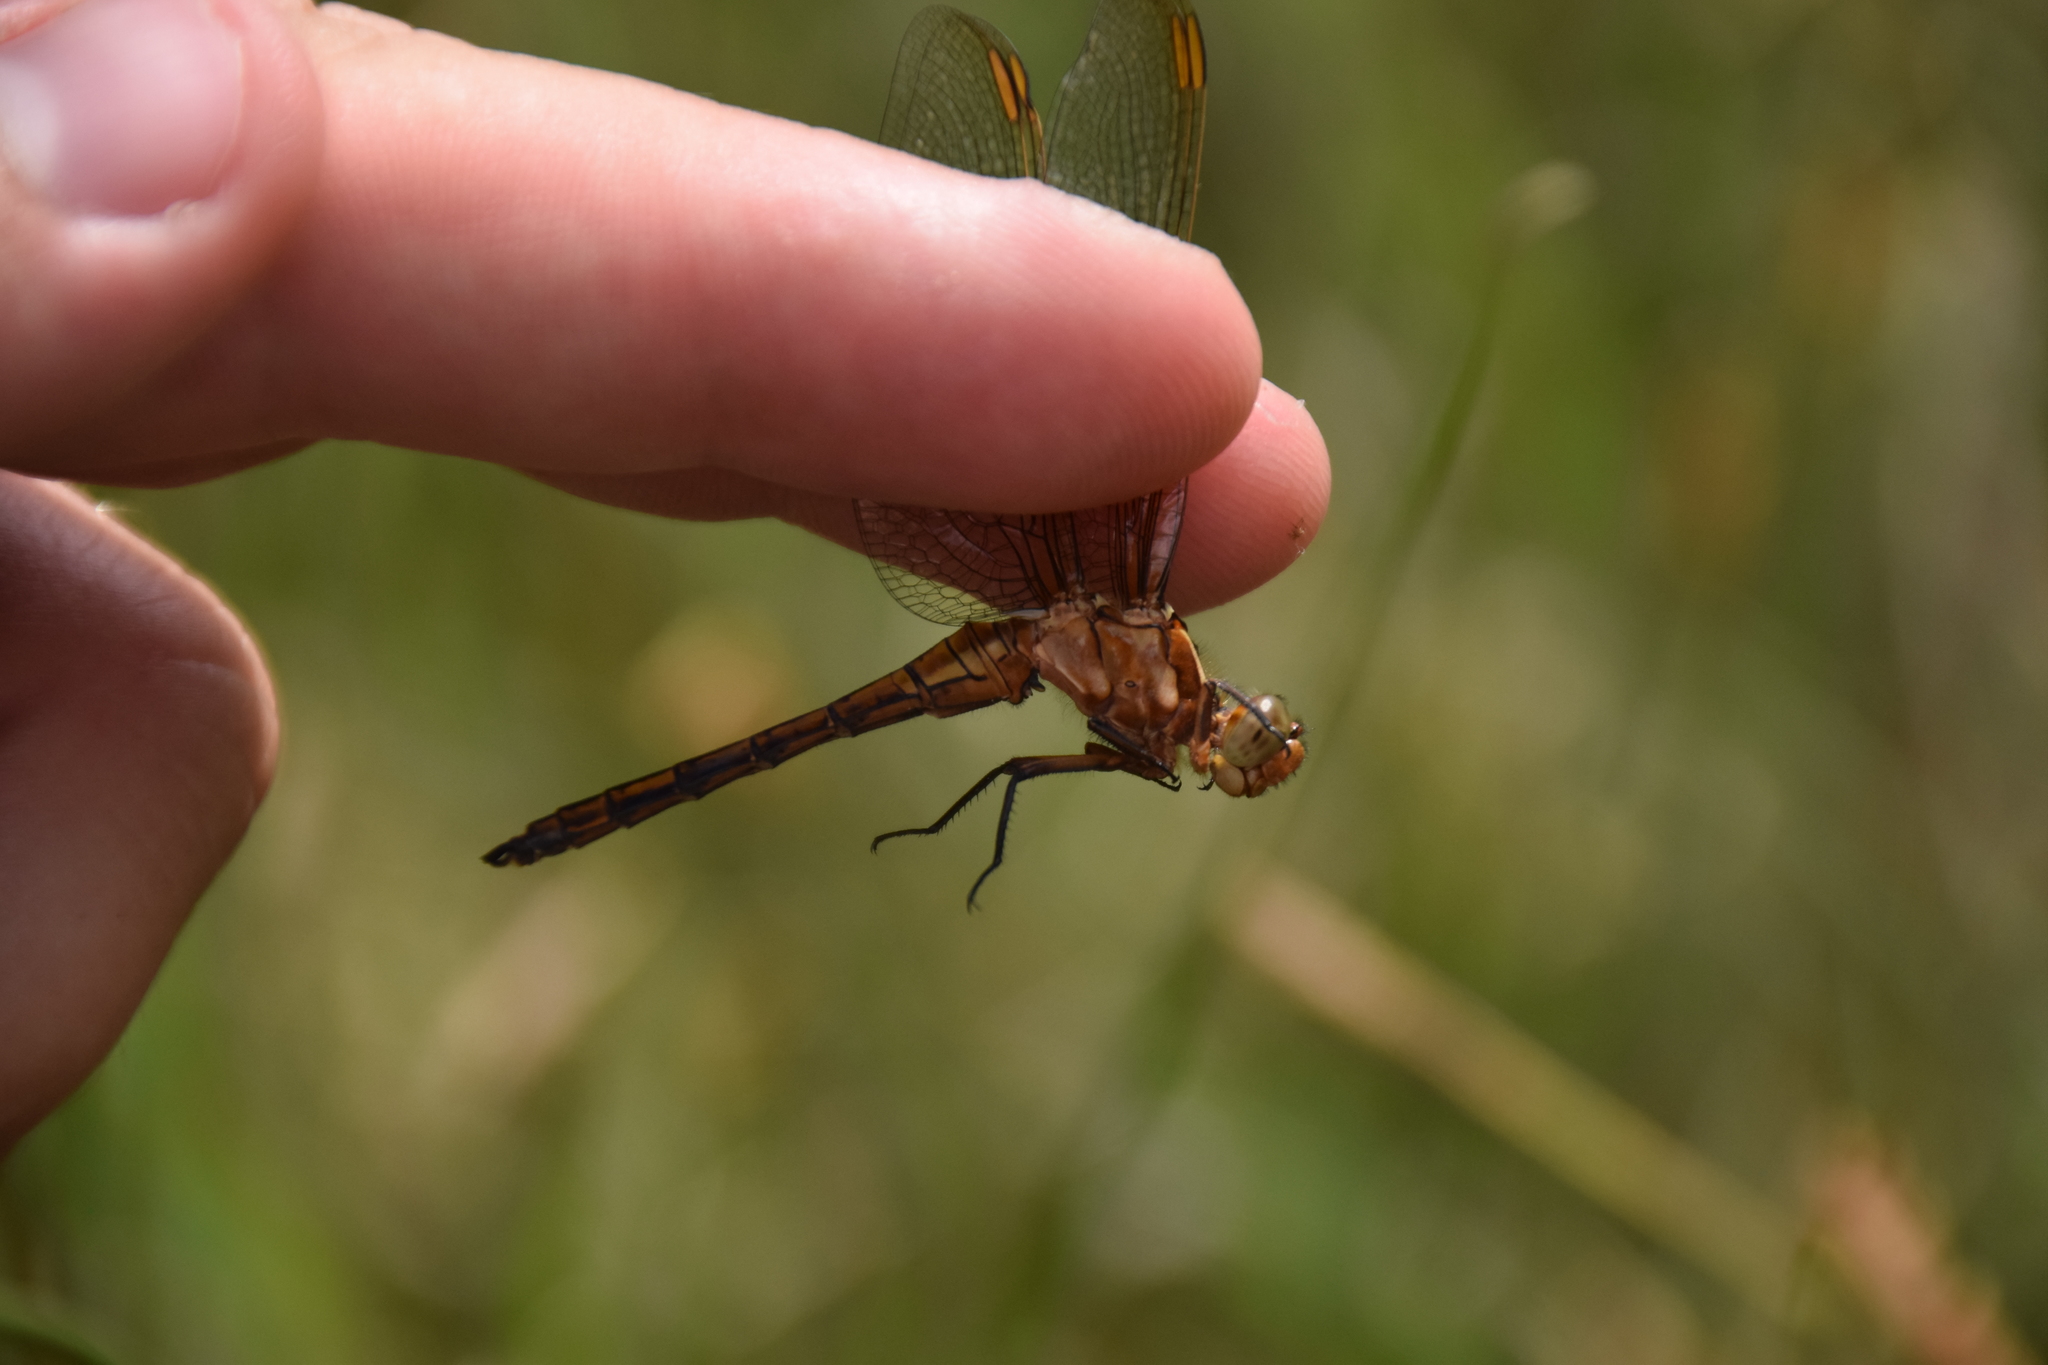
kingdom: Animalia
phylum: Arthropoda
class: Insecta
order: Odonata
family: Libellulidae
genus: Orthetrum
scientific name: Orthetrum coerulescens
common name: Keeled skimmer
